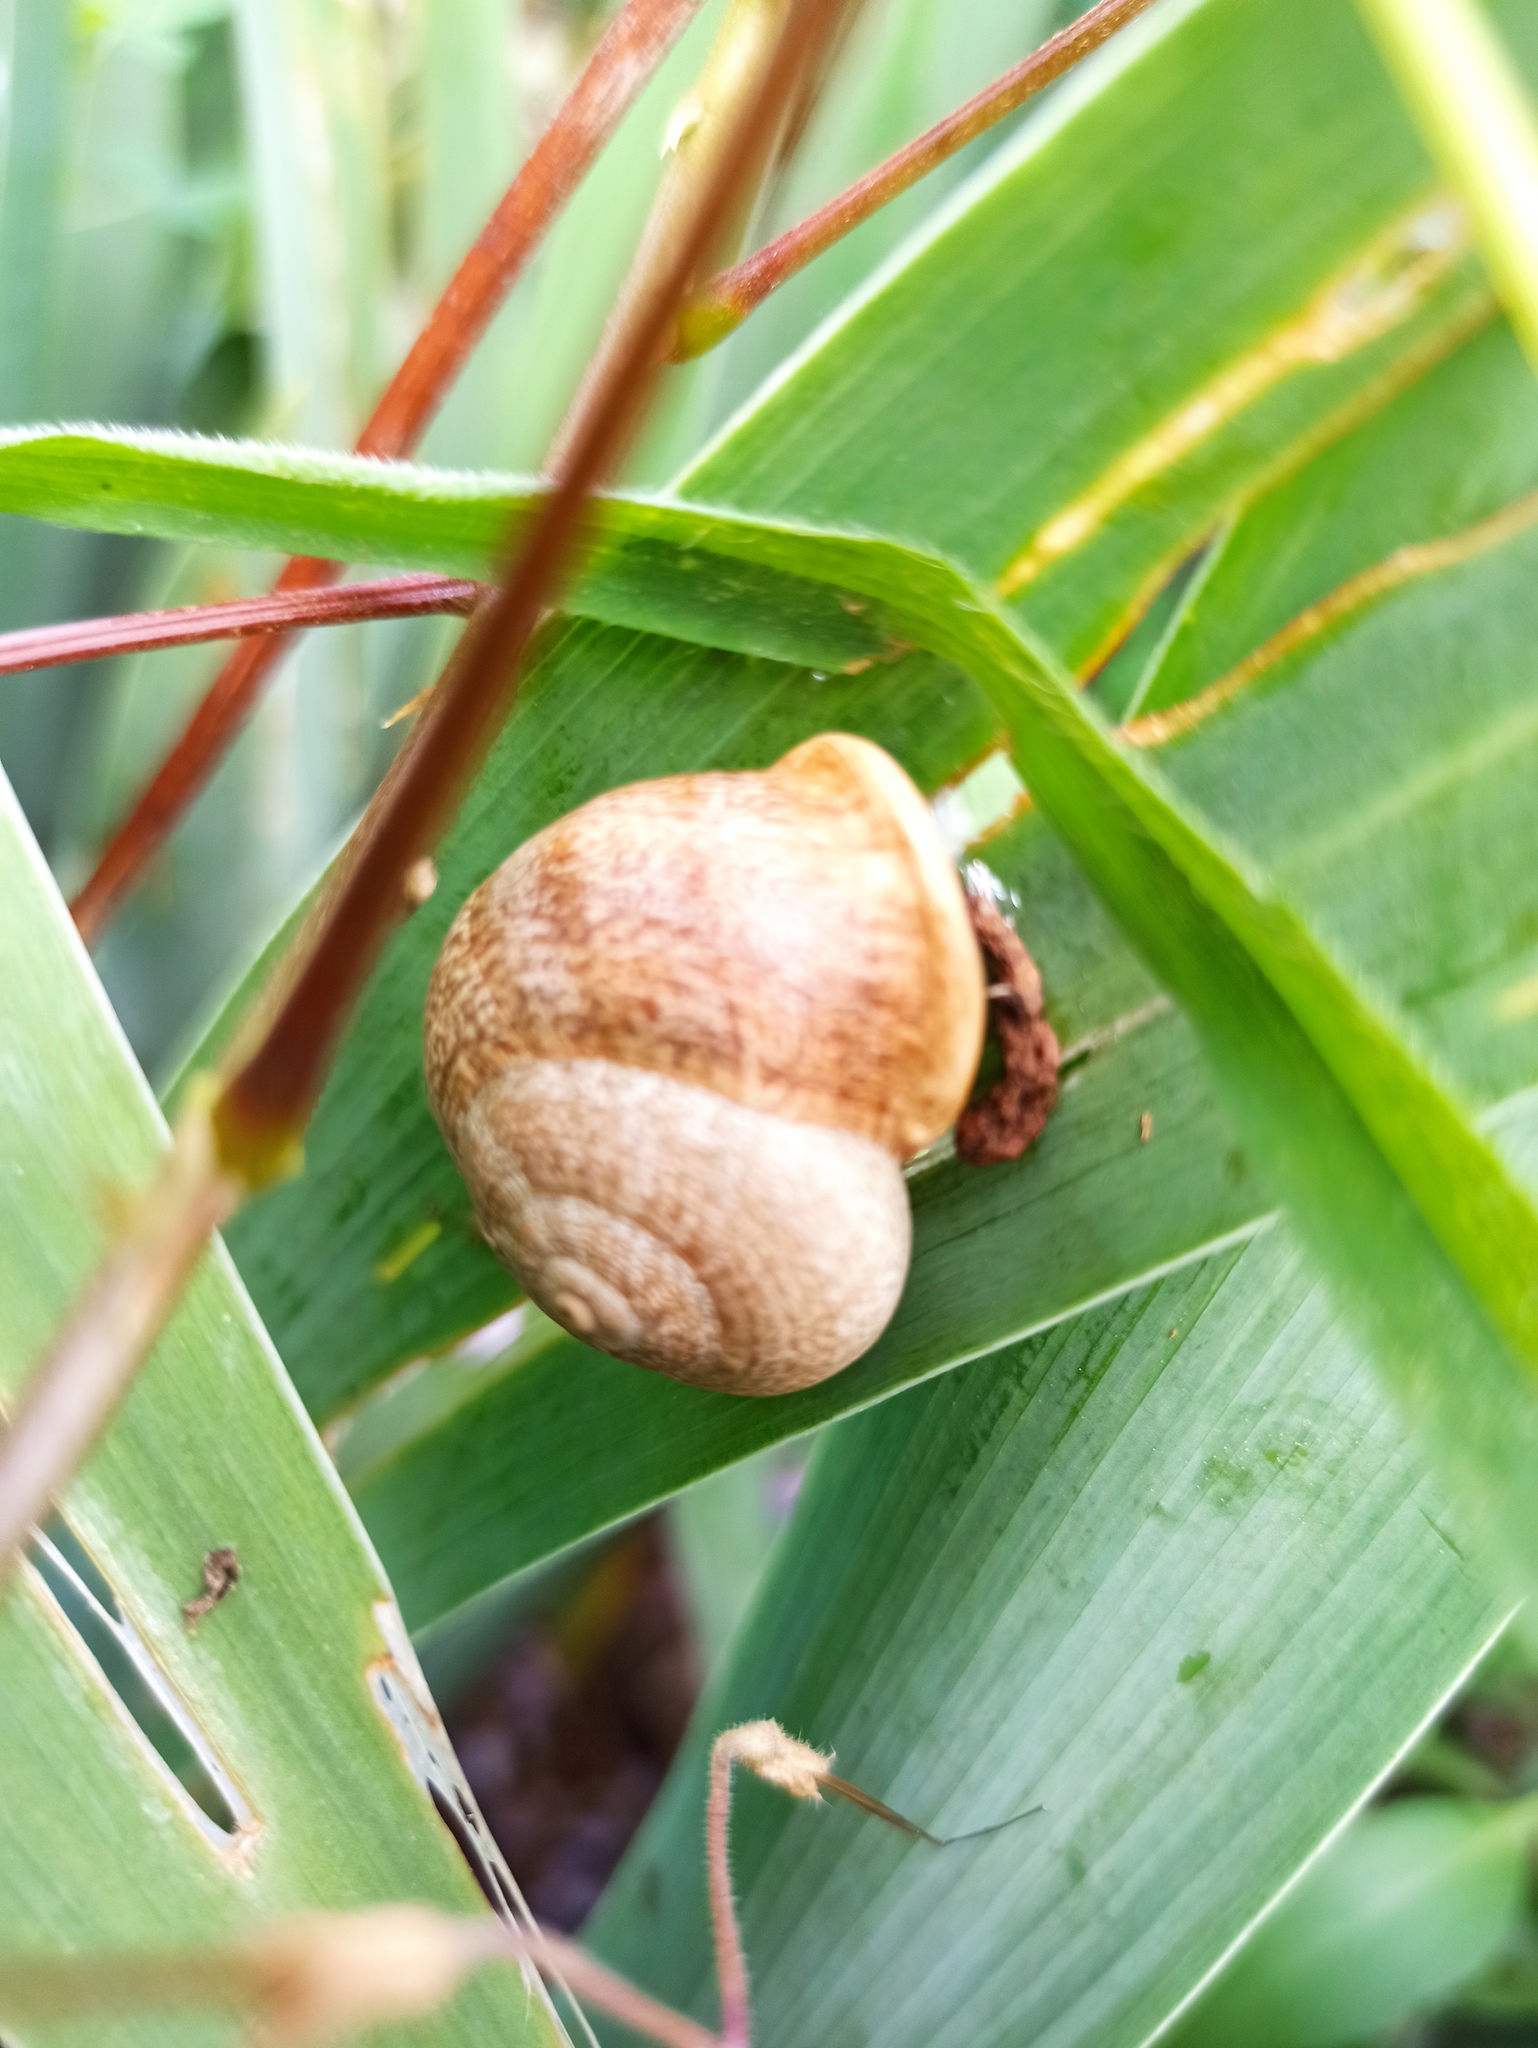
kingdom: Animalia
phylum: Mollusca
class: Gastropoda
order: Stylommatophora
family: Helicidae
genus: Otala
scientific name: Otala lactea
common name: Milk snail
